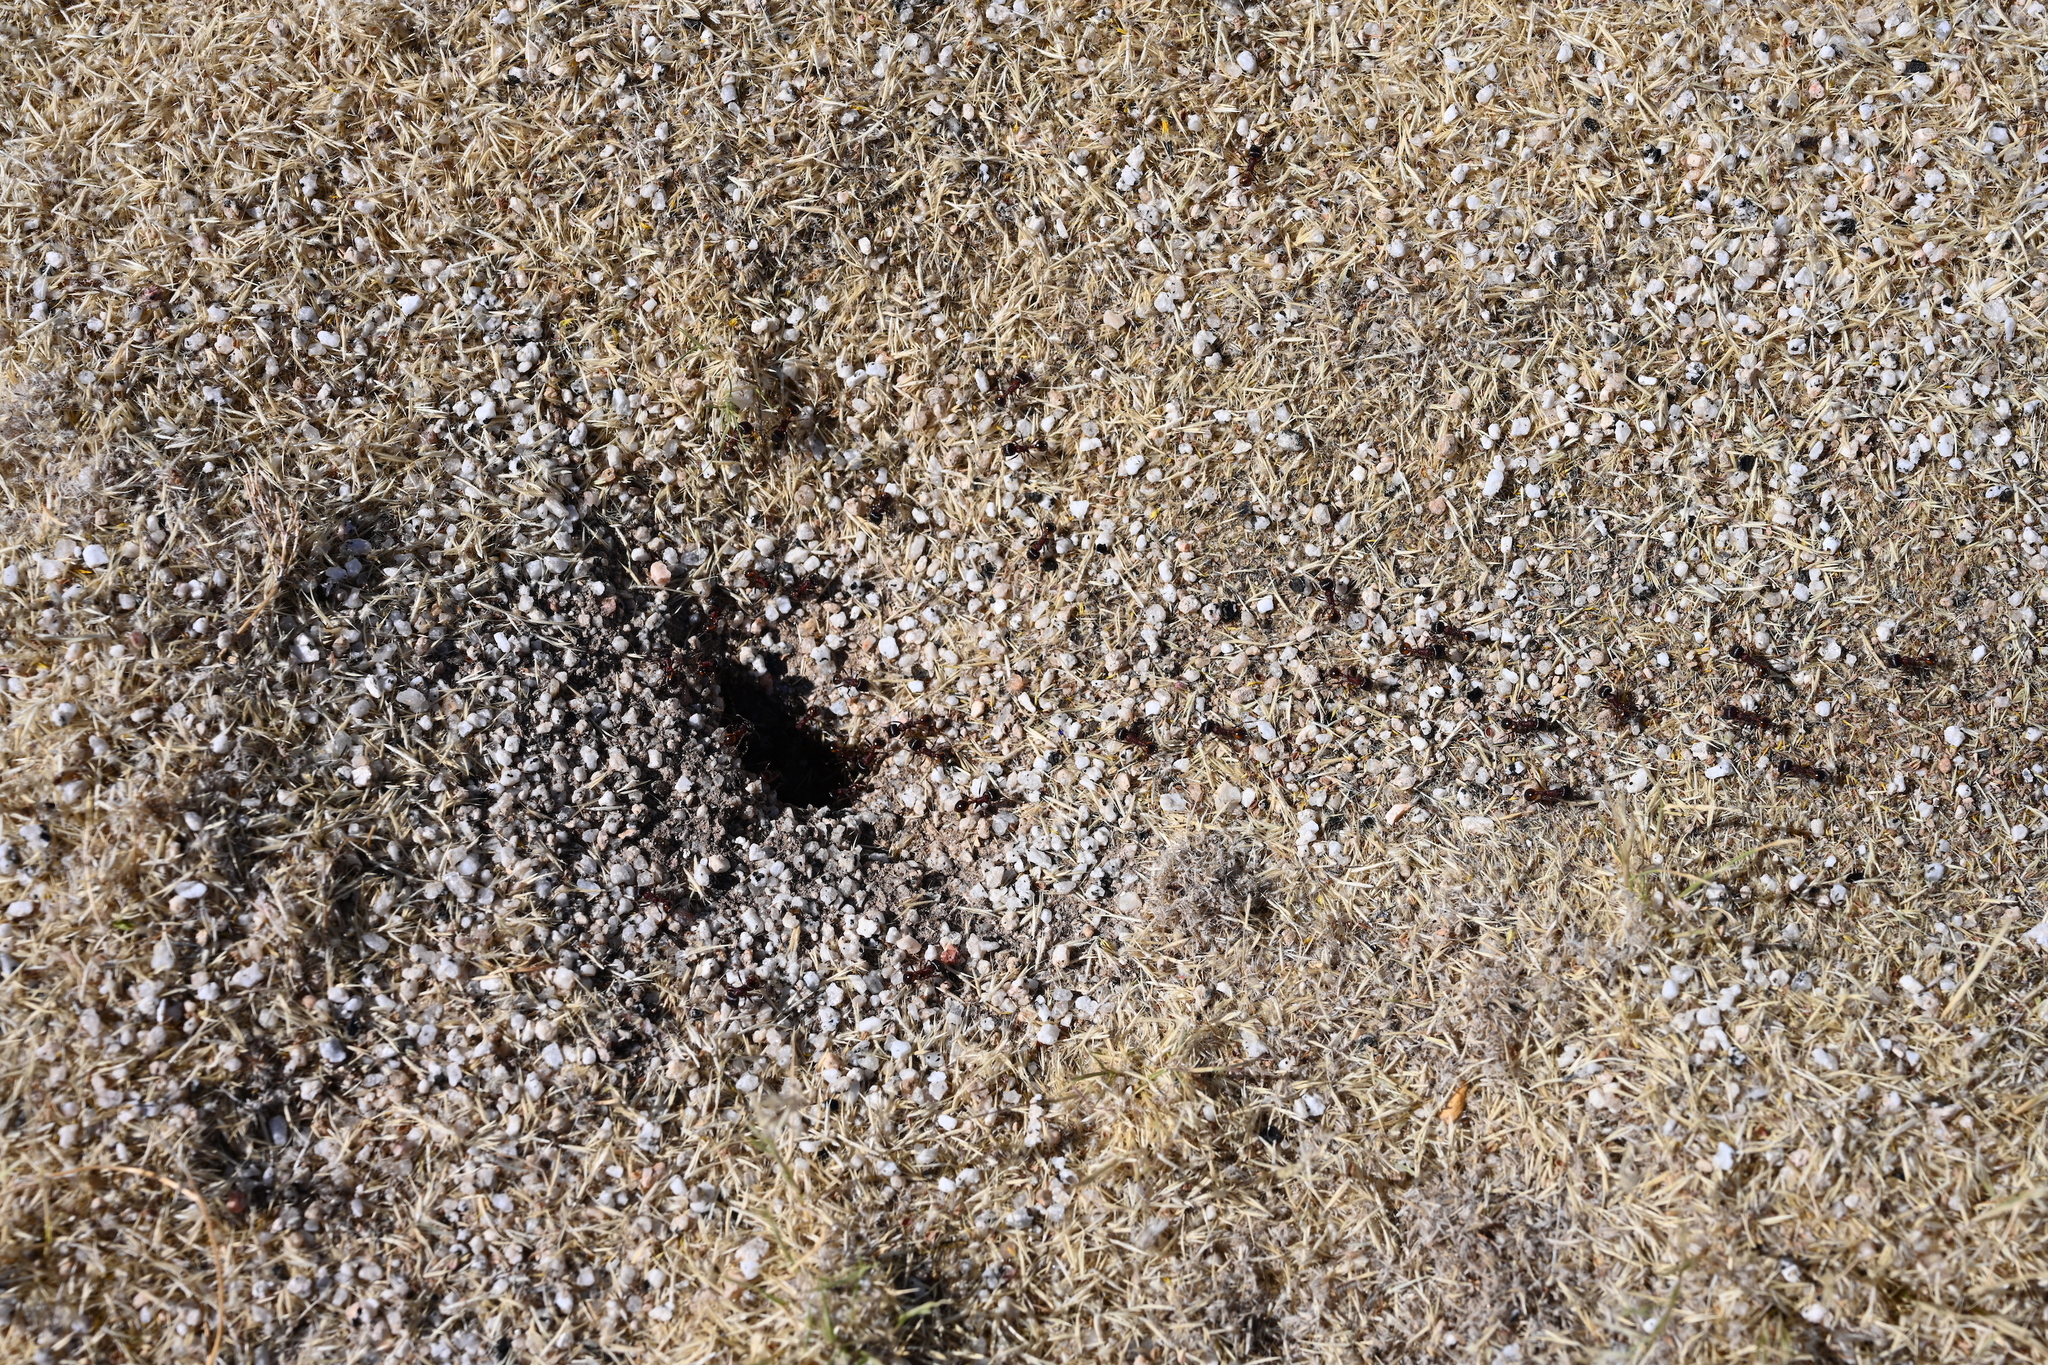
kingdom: Animalia
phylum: Arthropoda
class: Insecta
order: Hymenoptera
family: Formicidae
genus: Pogonomyrmex
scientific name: Pogonomyrmex rugosus
